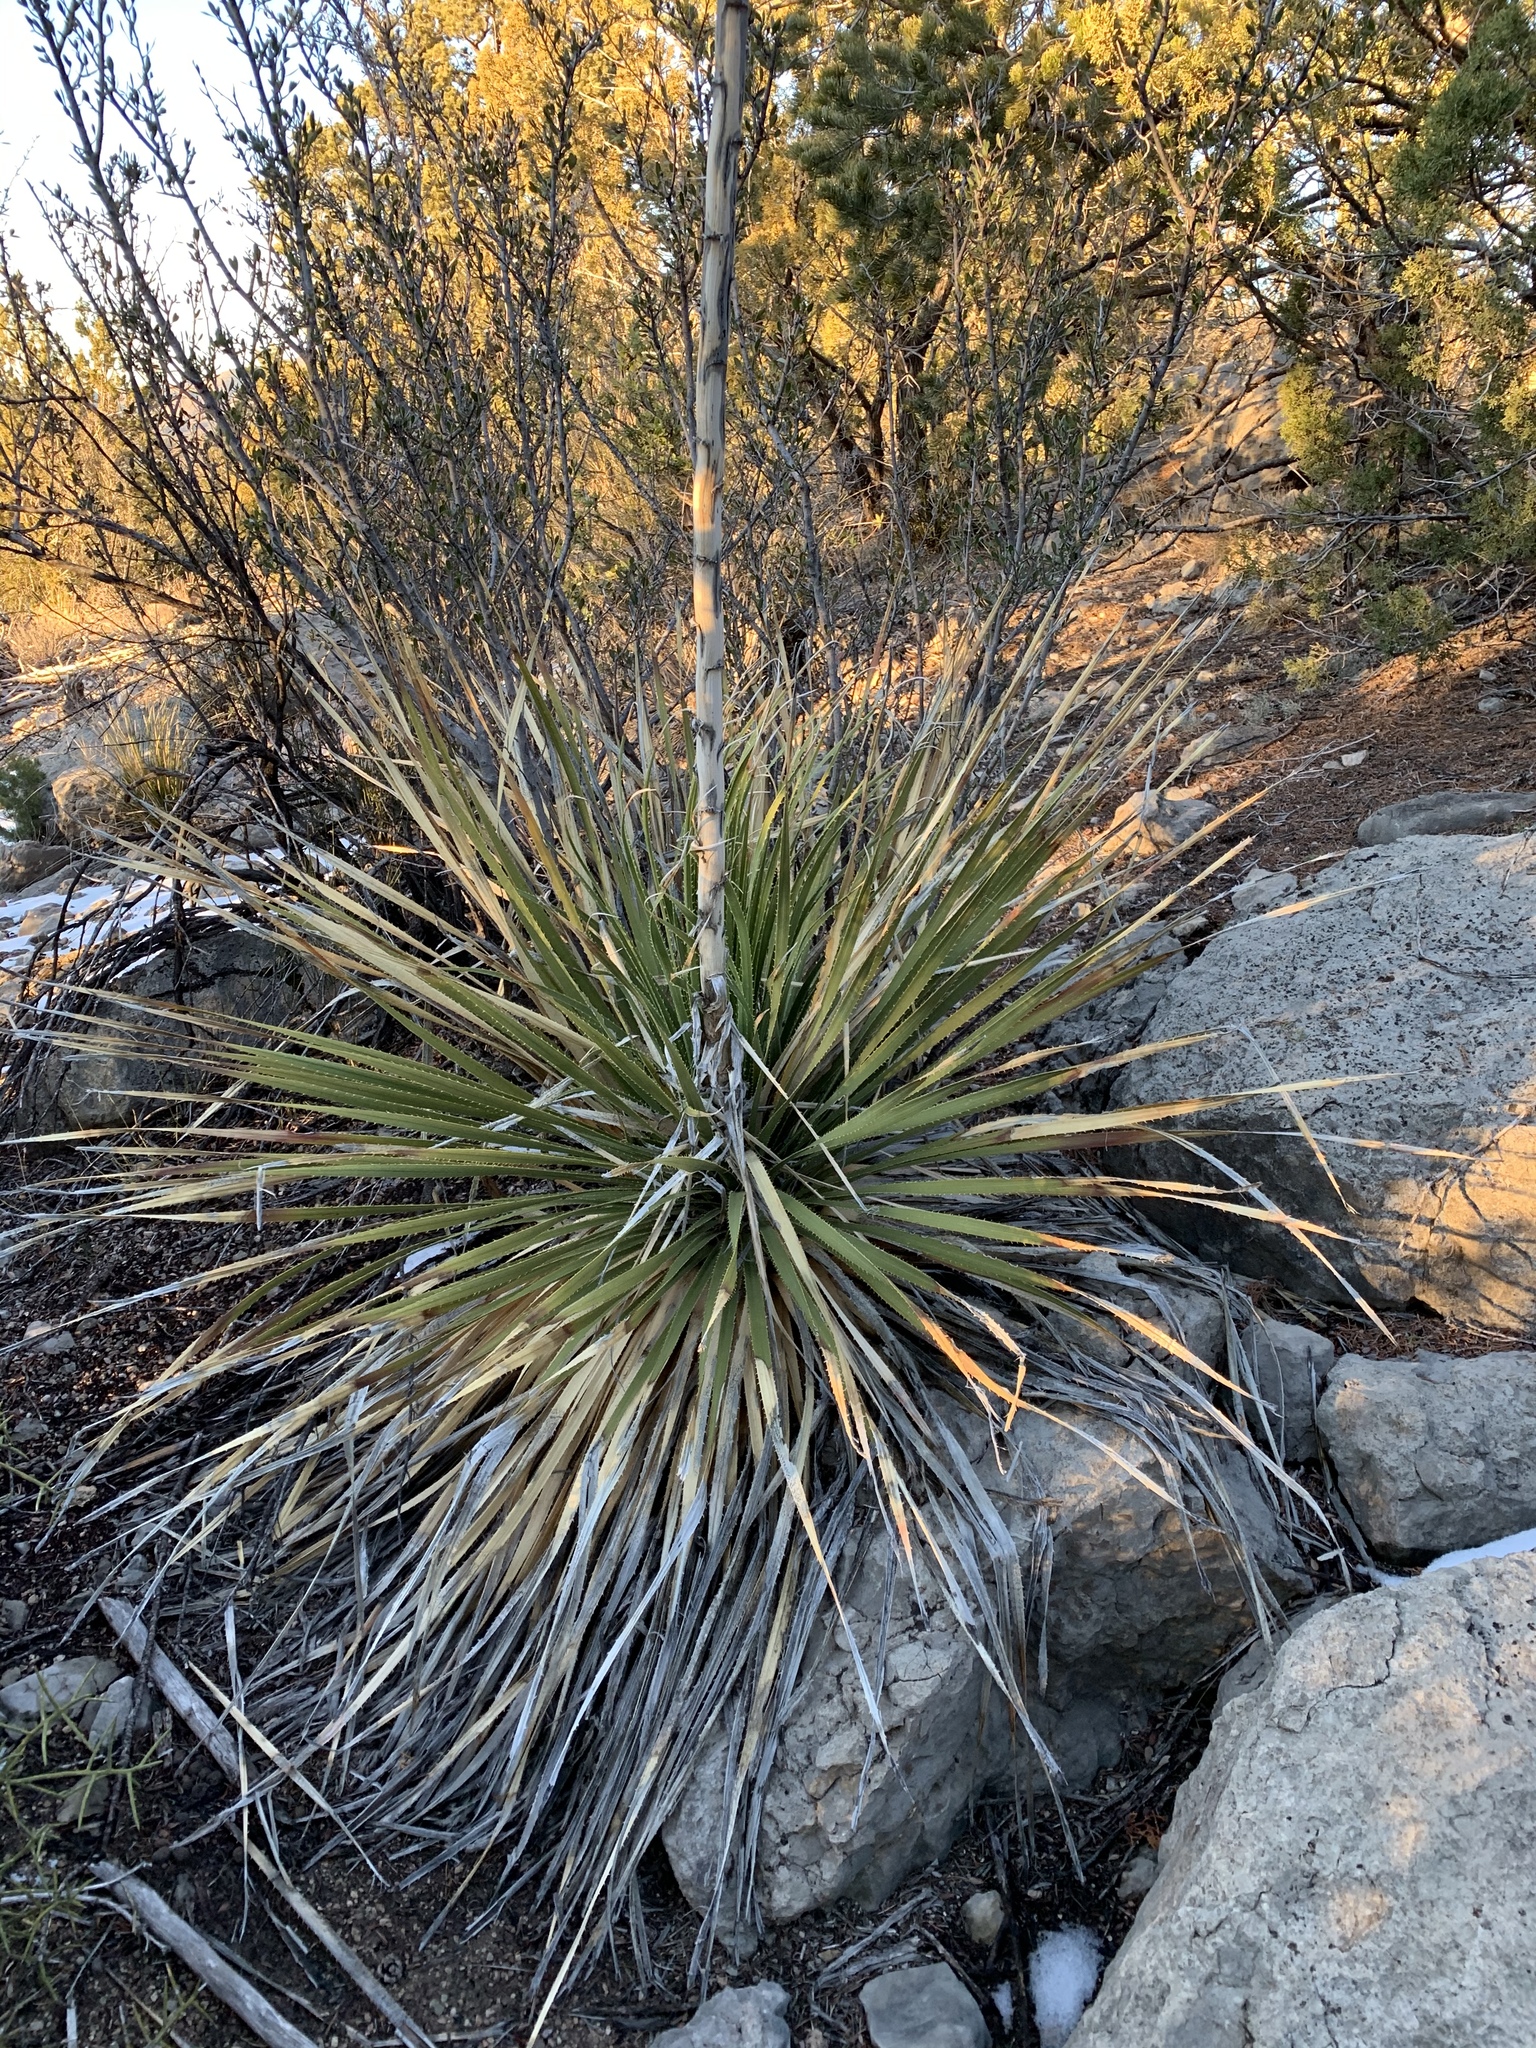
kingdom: Plantae
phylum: Tracheophyta
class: Liliopsida
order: Asparagales
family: Asparagaceae
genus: Dasylirion
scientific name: Dasylirion wheeleri
